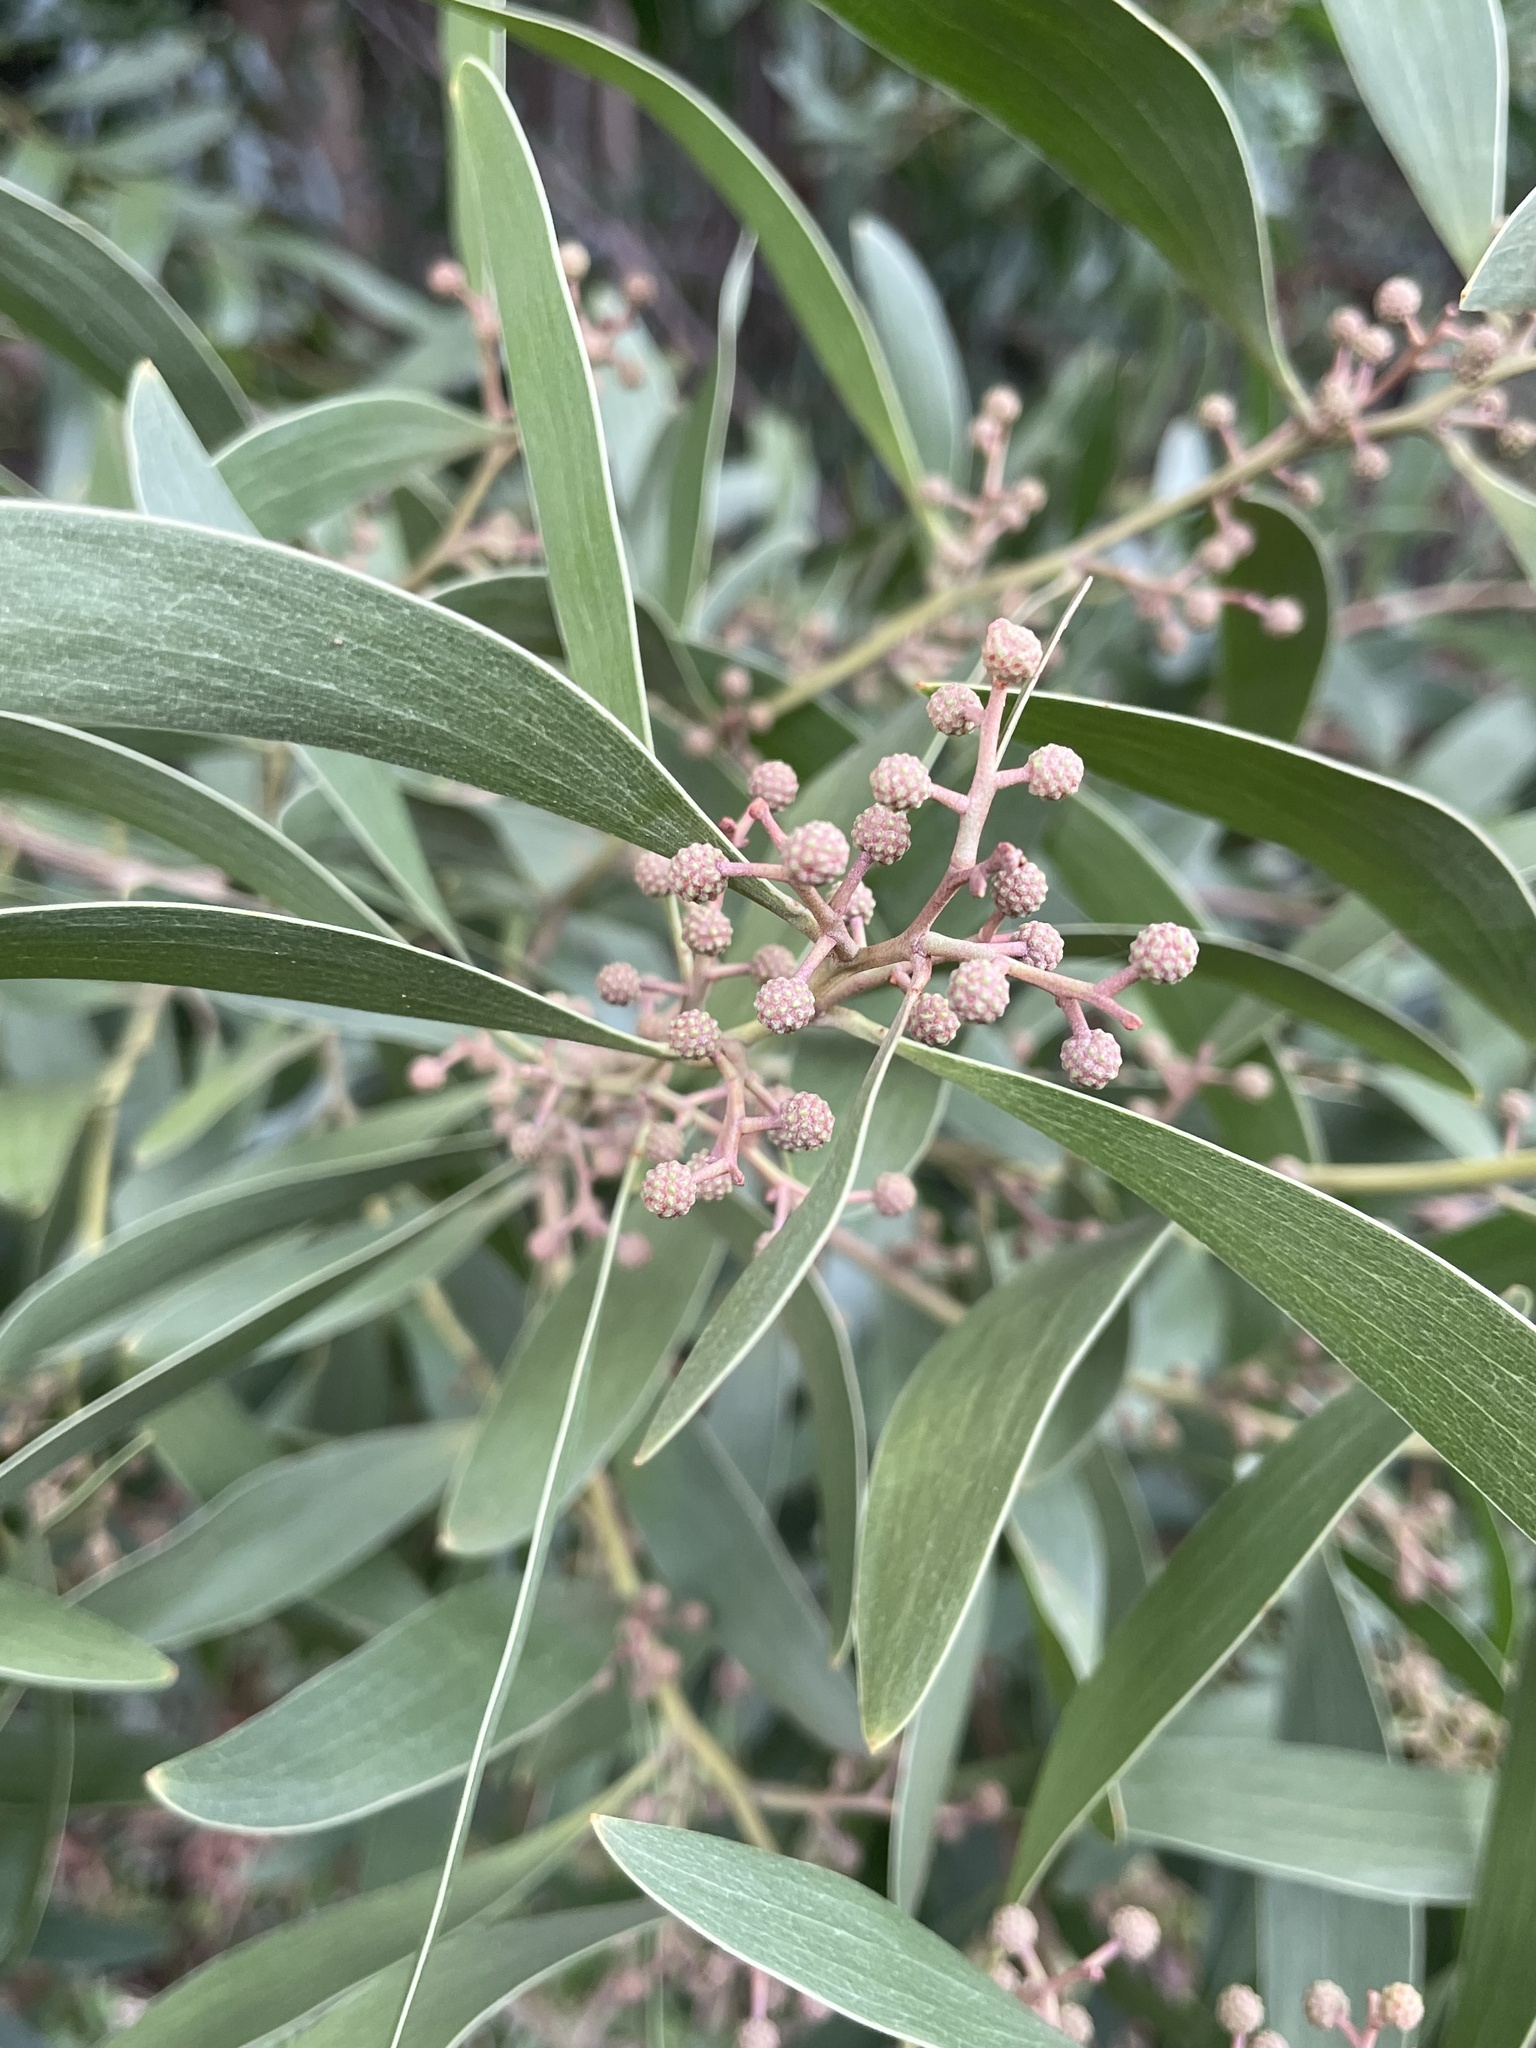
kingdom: Plantae
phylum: Tracheophyta
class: Magnoliopsida
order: Fabales
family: Fabaceae
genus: Acacia
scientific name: Acacia melanoxylon
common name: Blackwood
